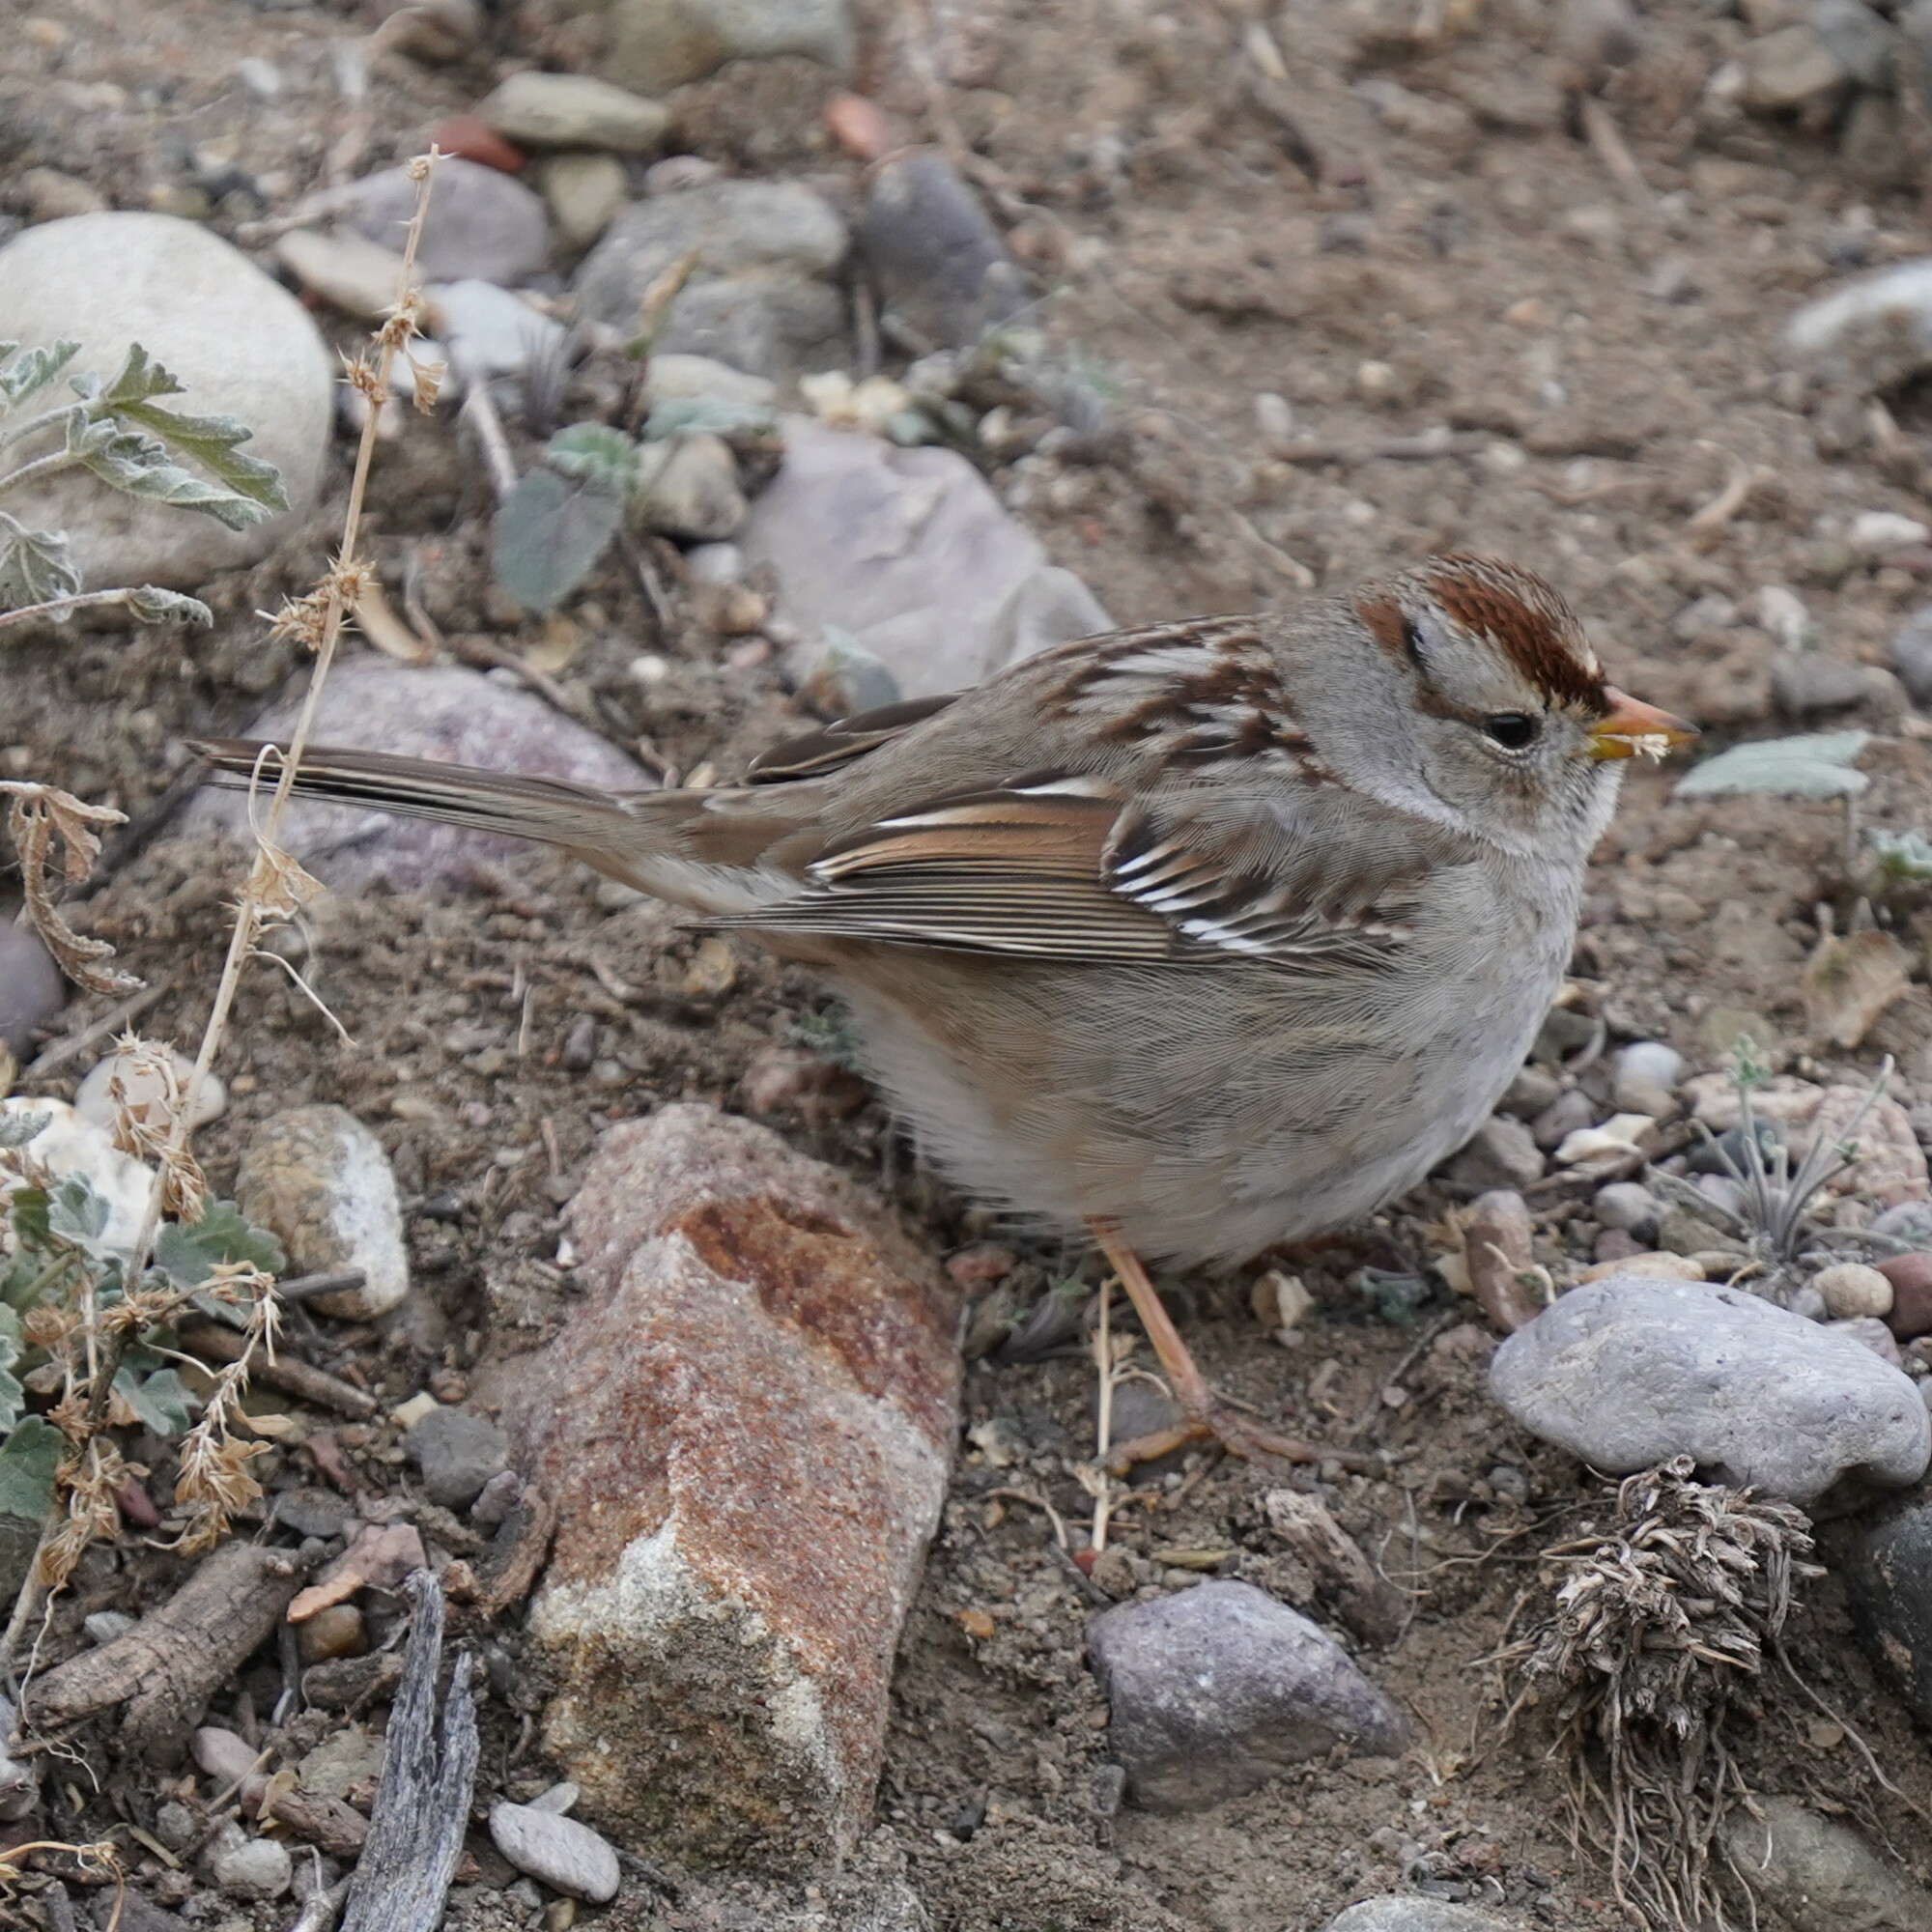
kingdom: Animalia
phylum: Chordata
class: Aves
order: Passeriformes
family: Passerellidae
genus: Zonotrichia
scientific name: Zonotrichia leucophrys
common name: White-crowned sparrow
